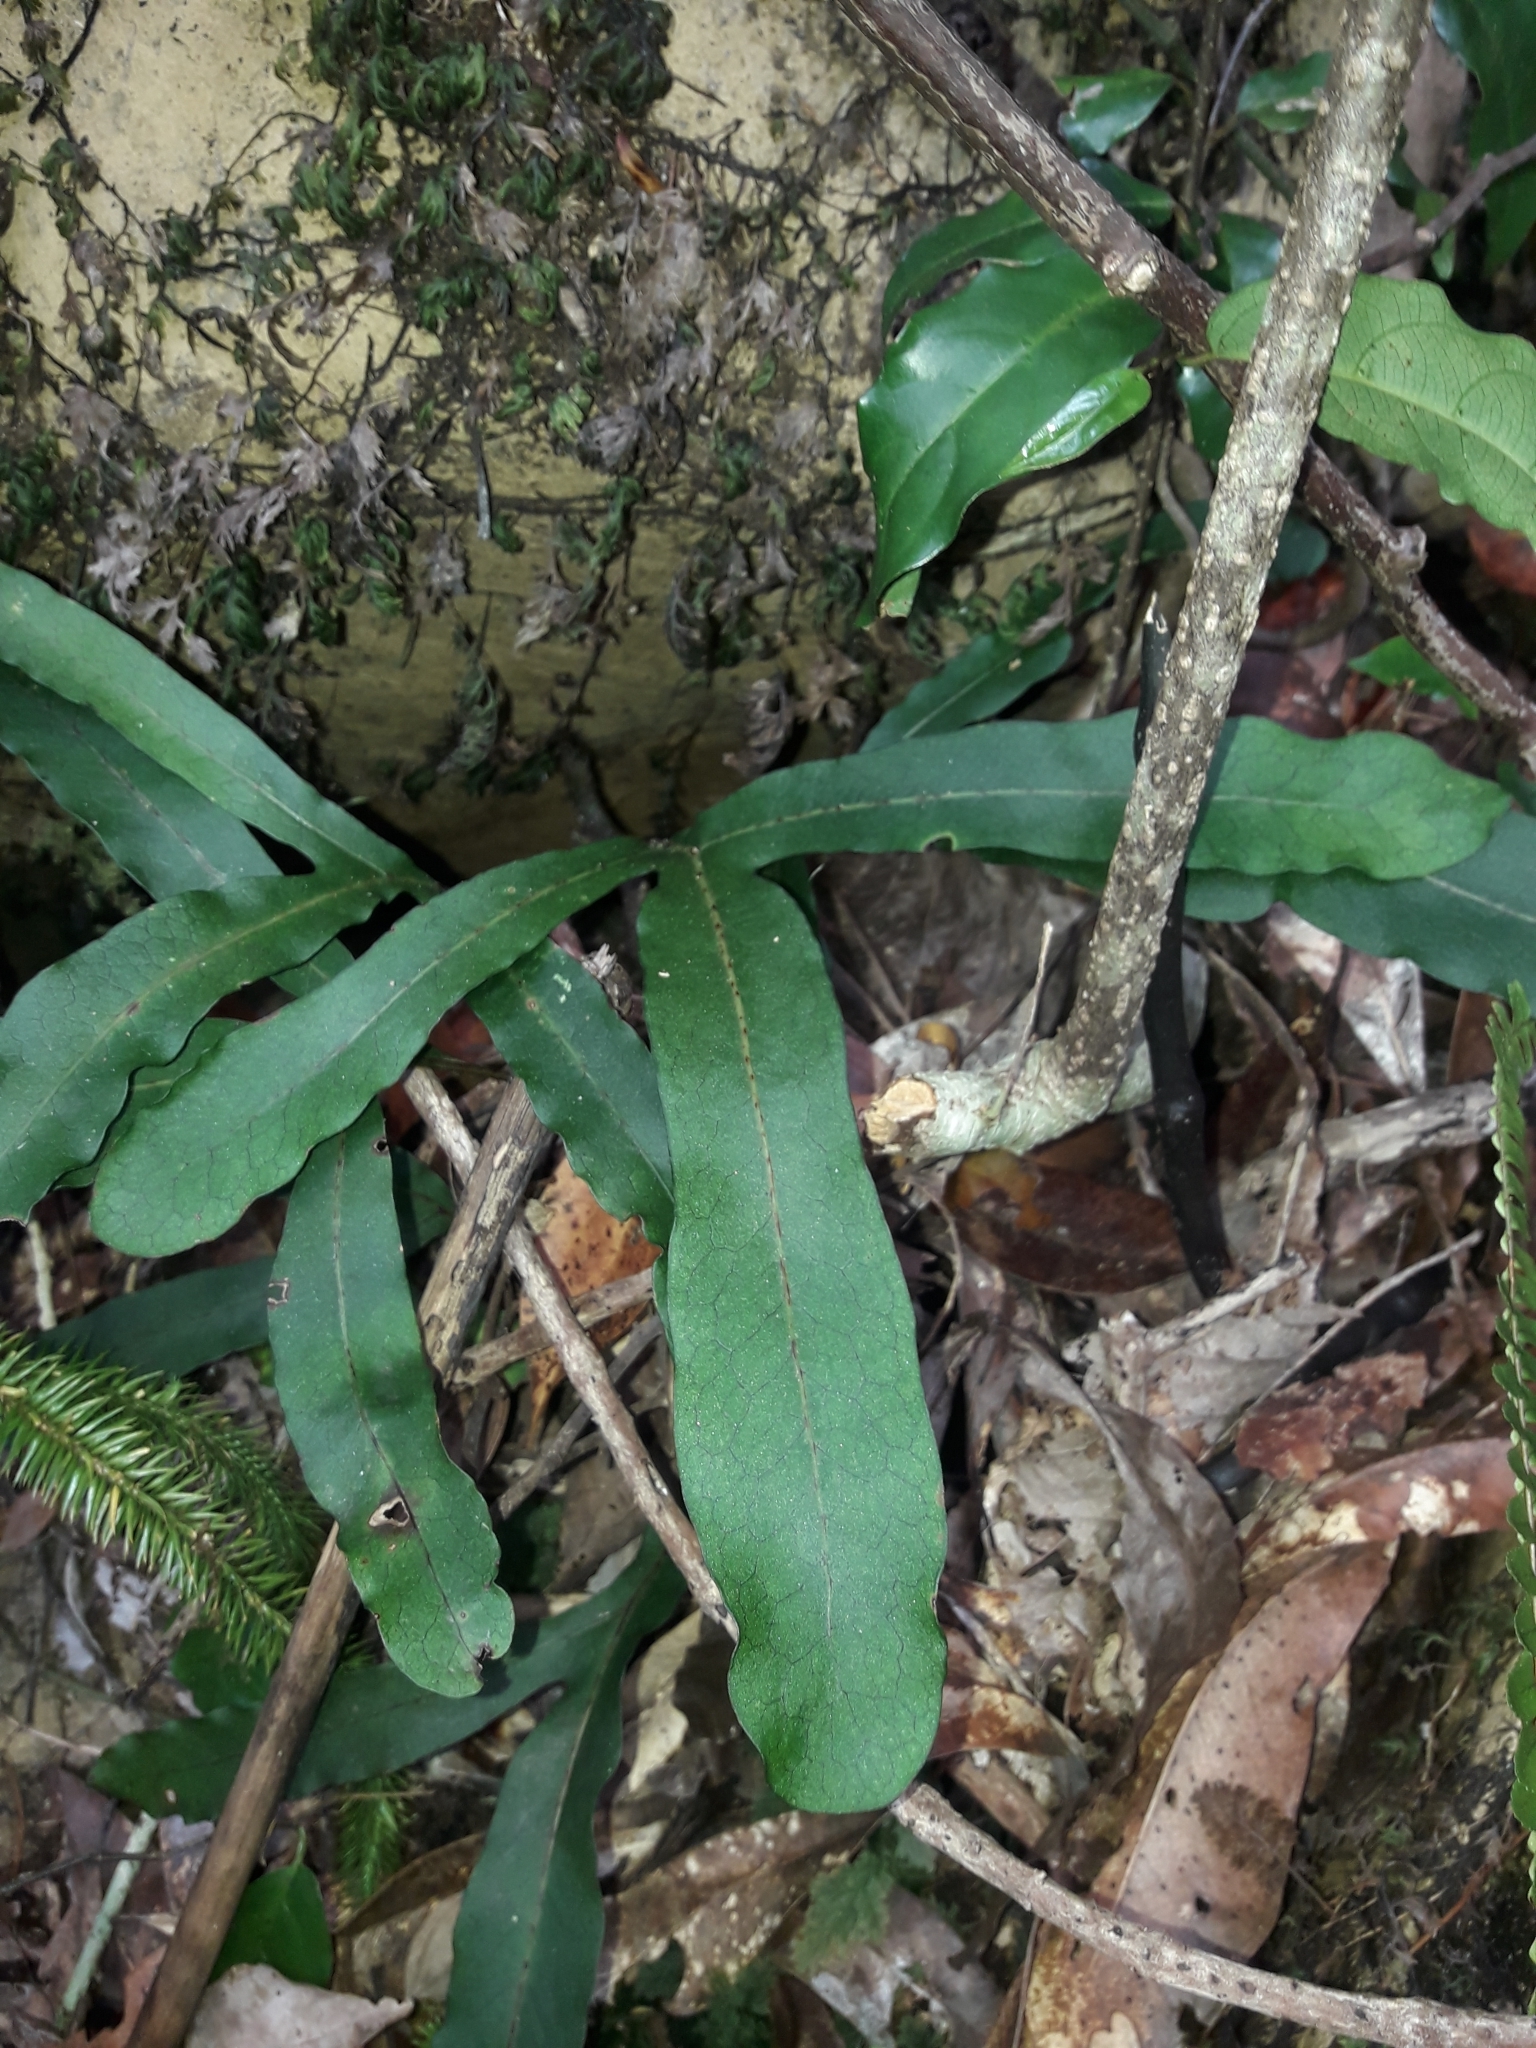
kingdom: Plantae
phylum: Tracheophyta
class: Polypodiopsida
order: Polypodiales
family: Polypodiaceae
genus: Lecanopteris
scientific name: Lecanopteris latilobata
